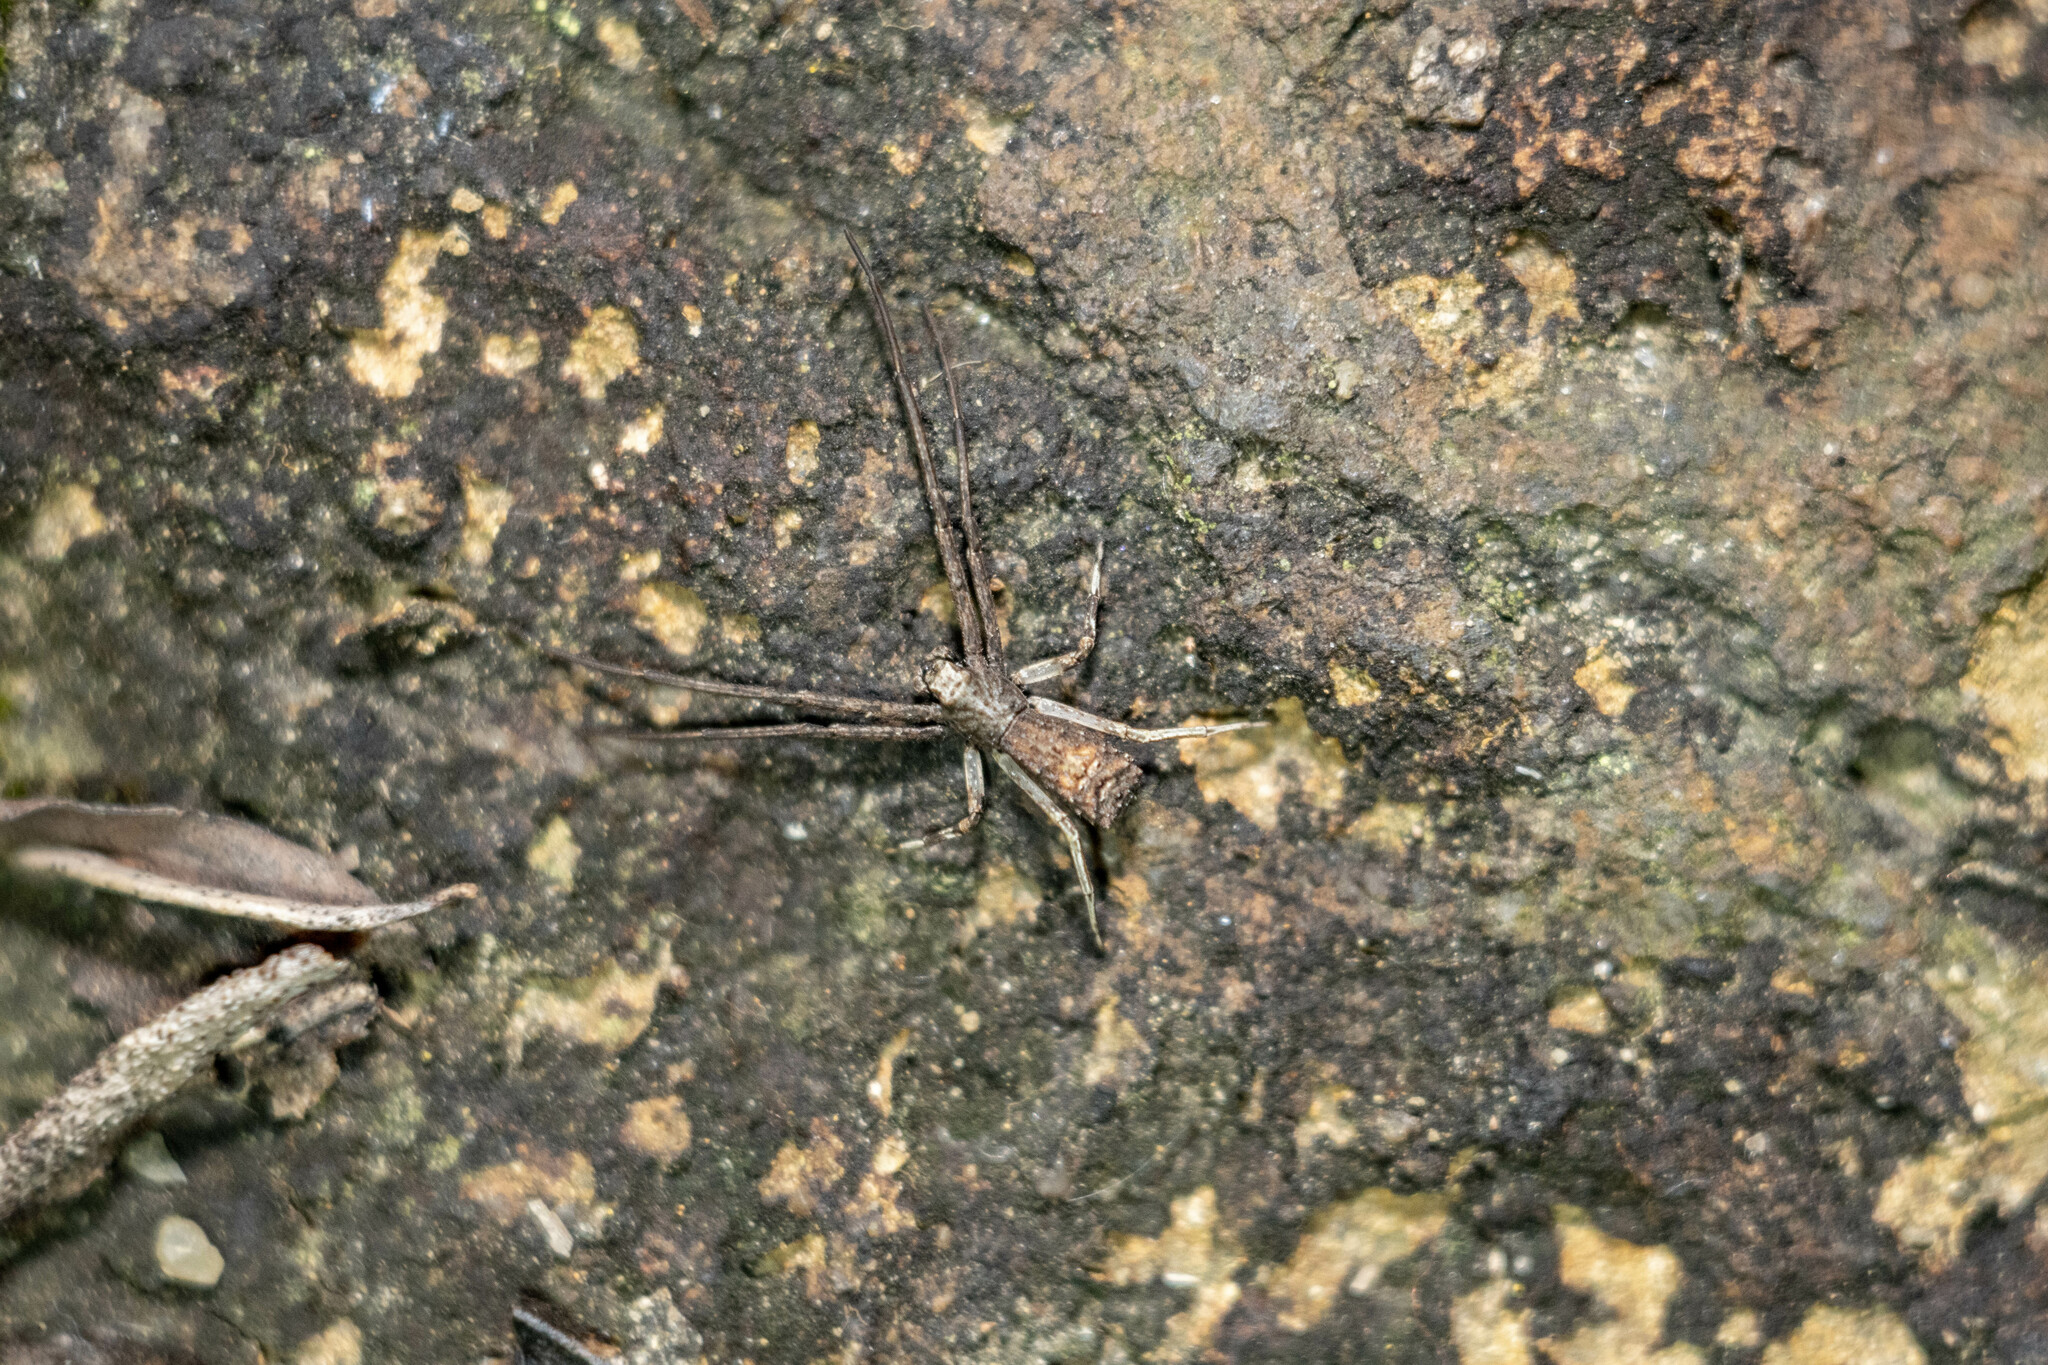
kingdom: Animalia
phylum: Arthropoda
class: Arachnida
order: Araneae
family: Thomisidae
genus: Simorcus
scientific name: Simorcus asiaticus
